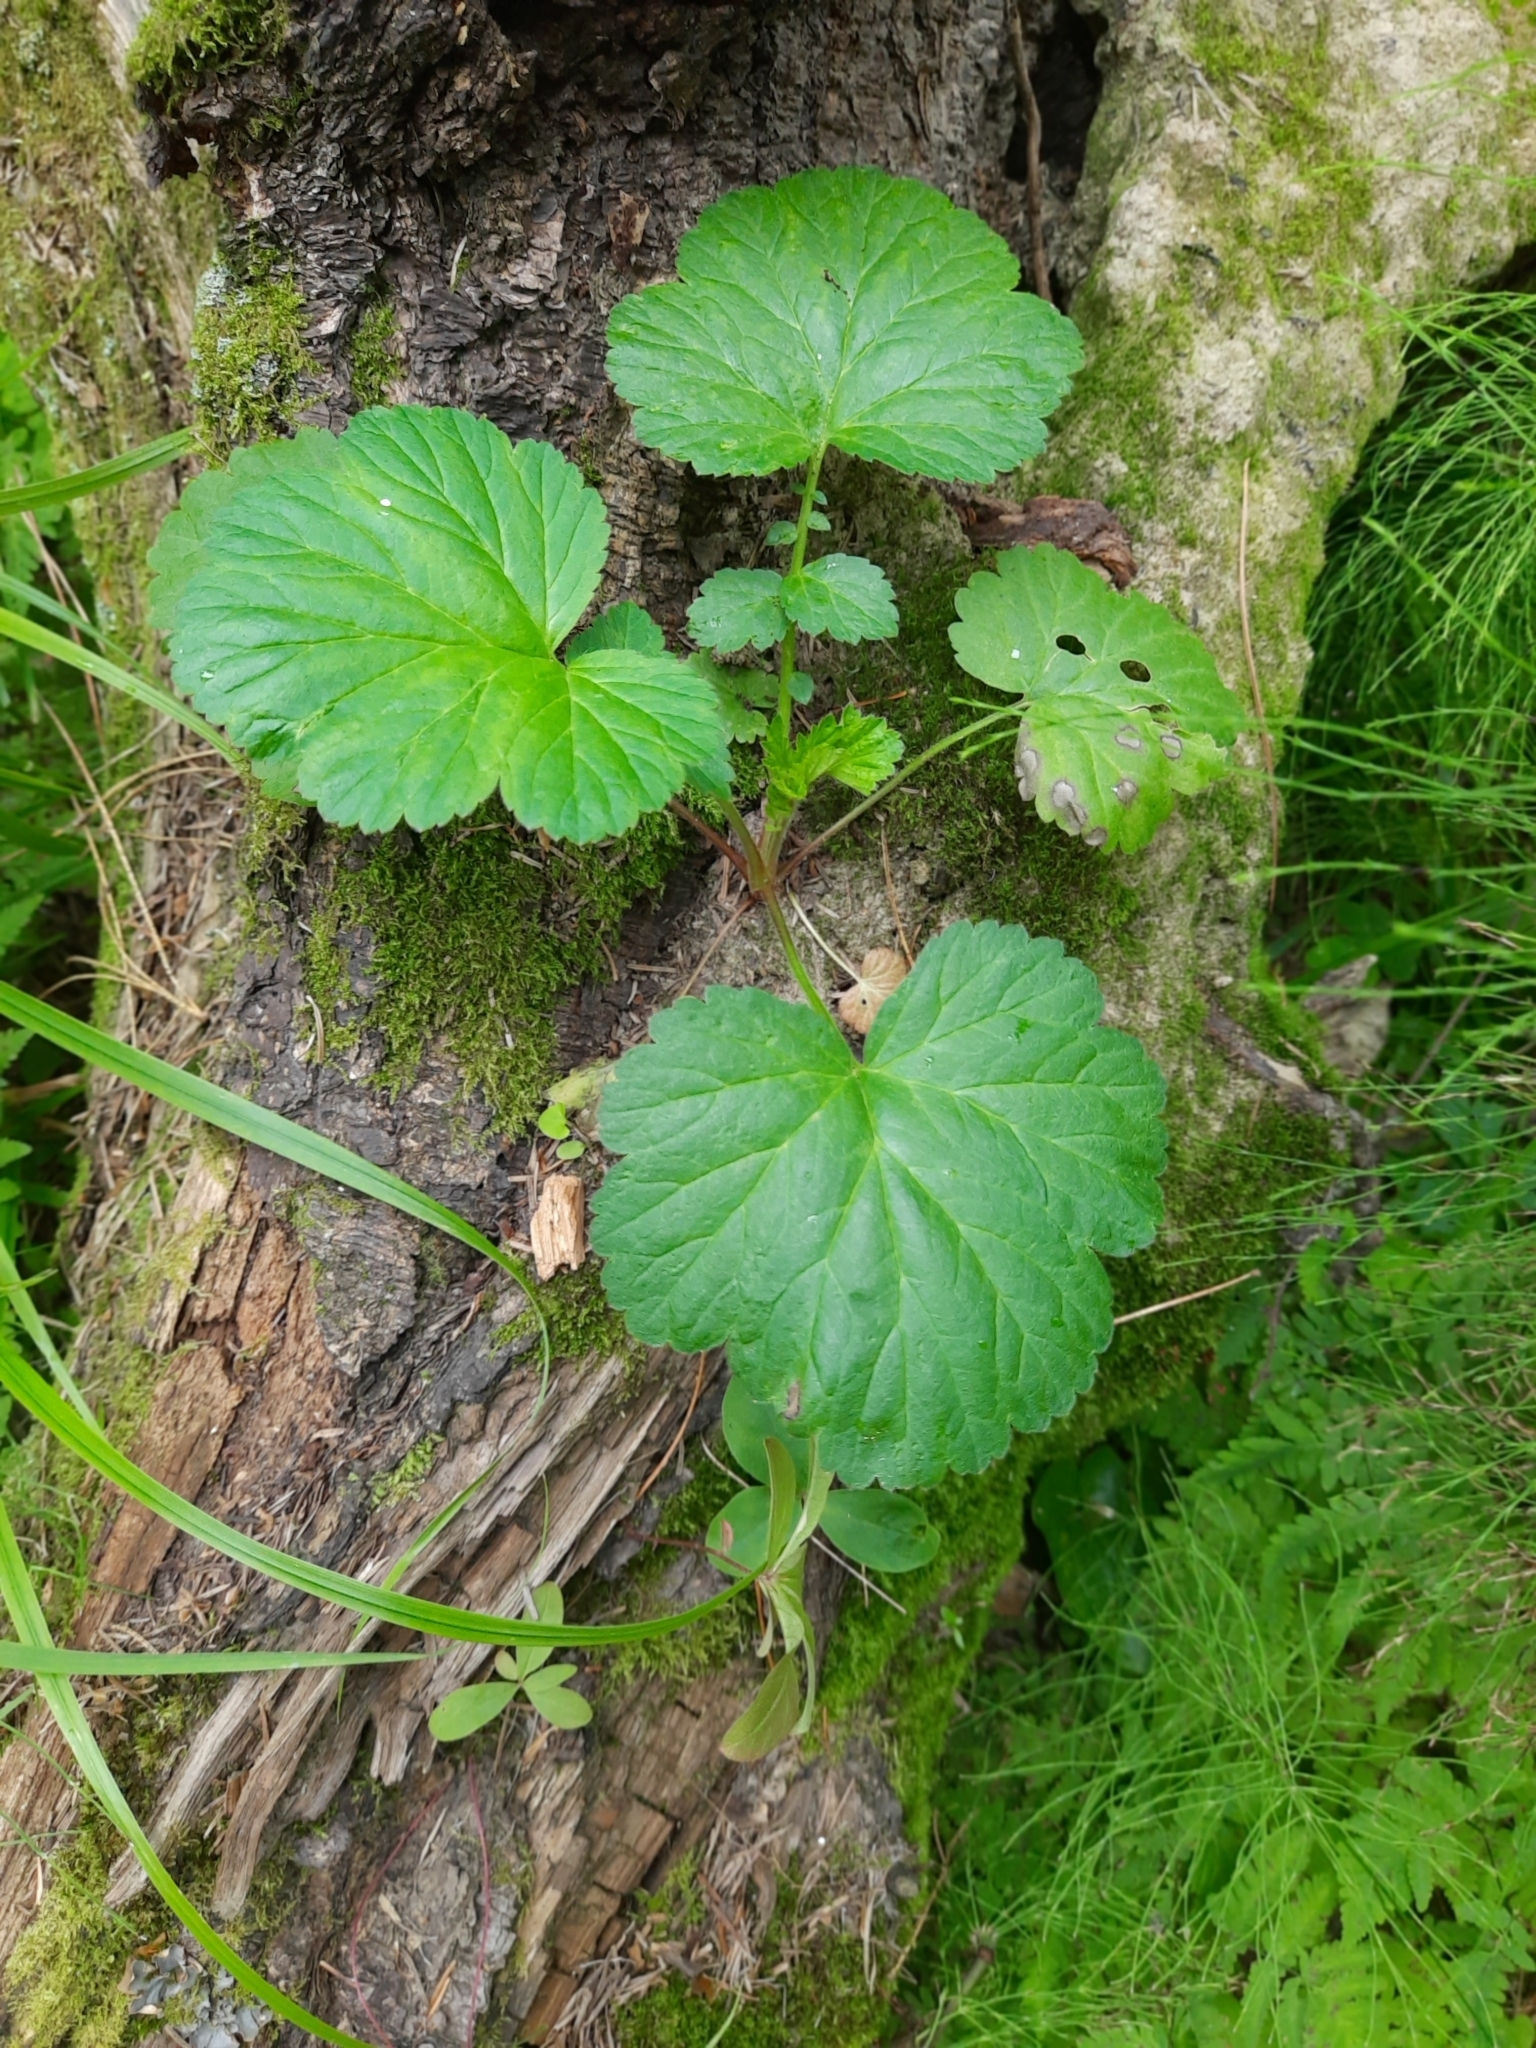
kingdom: Plantae
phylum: Tracheophyta
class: Magnoliopsida
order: Rosales
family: Rosaceae
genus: Geum
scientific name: Geum aleppicum
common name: Yellow avens
